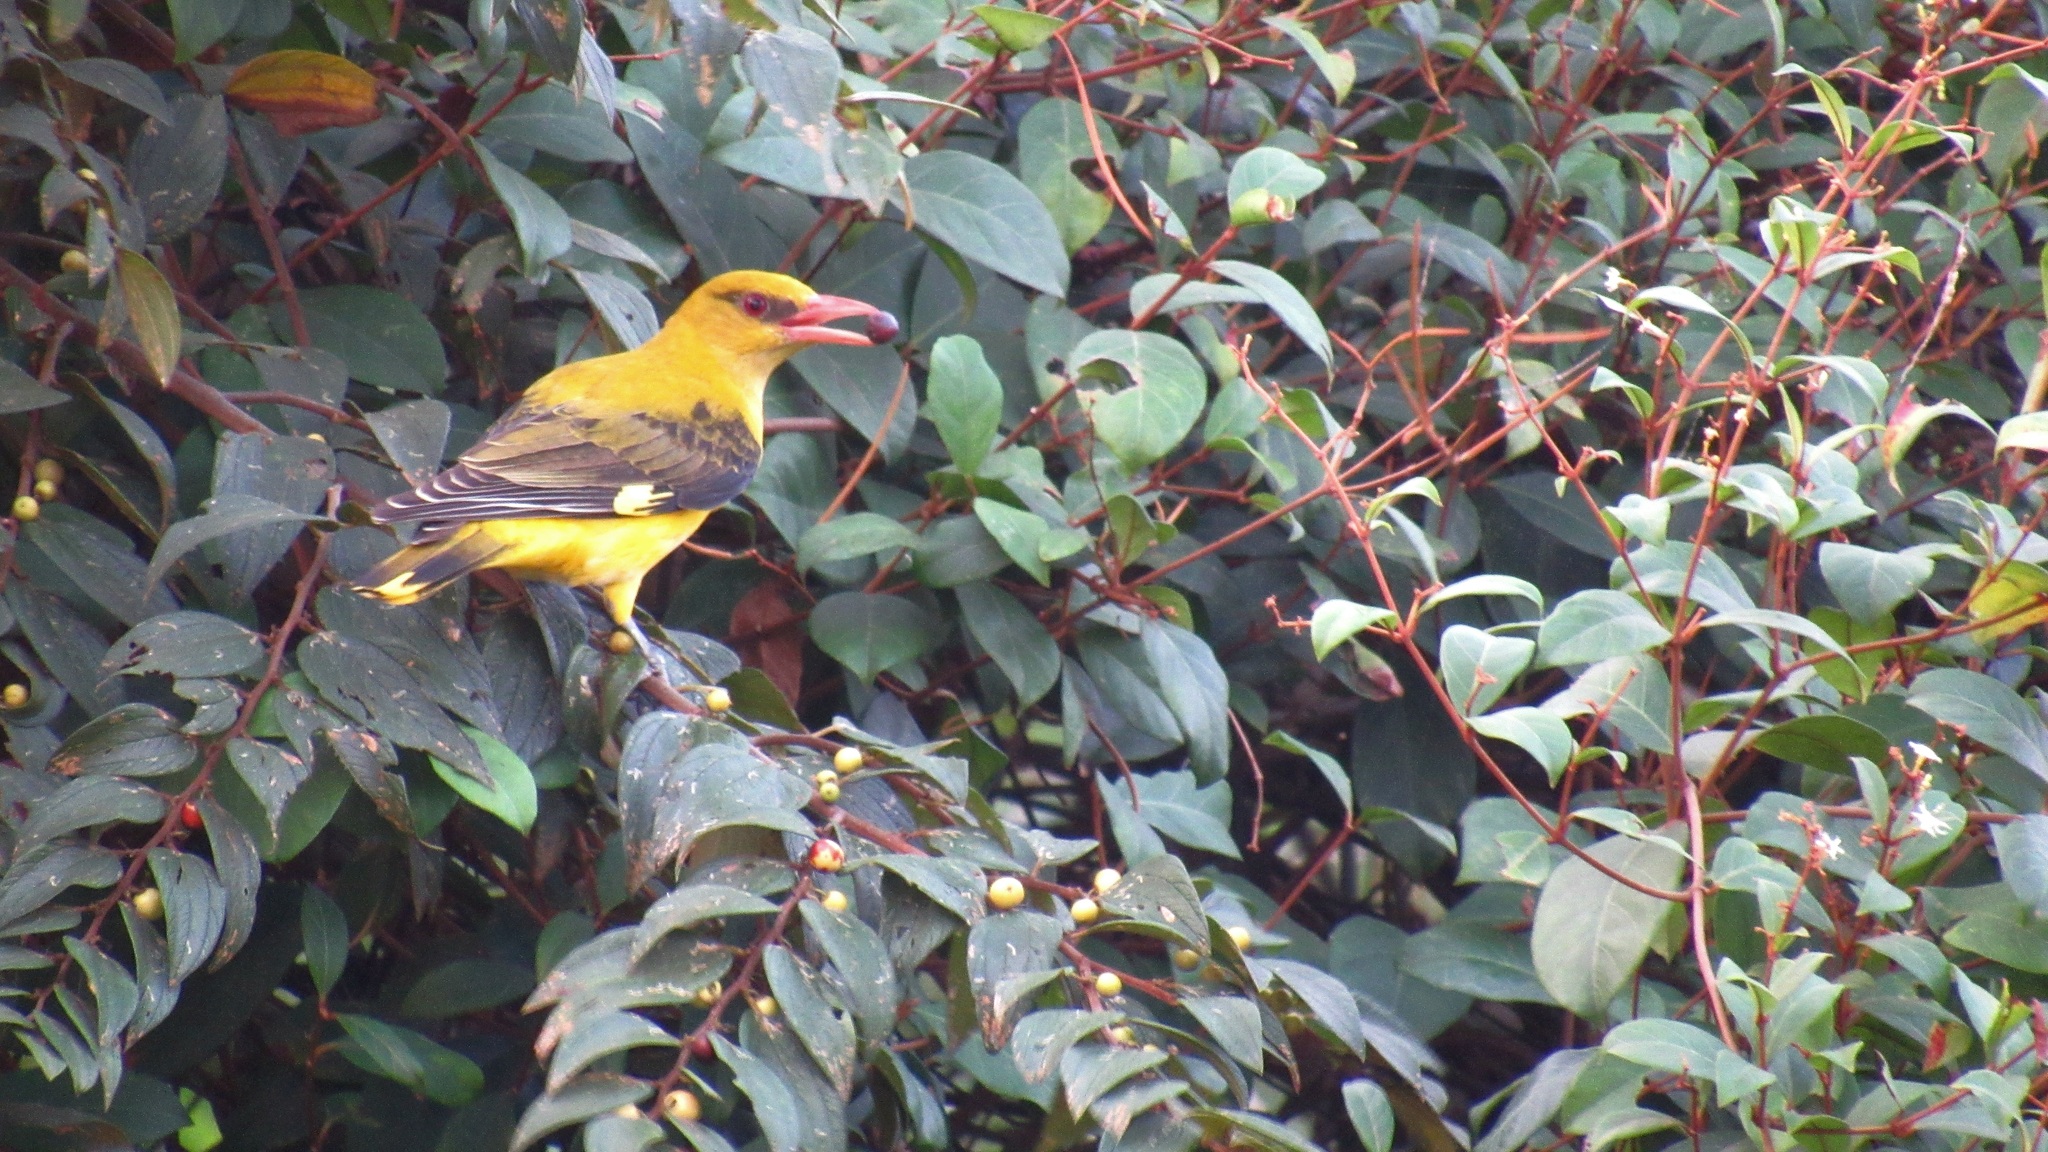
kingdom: Animalia
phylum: Chordata
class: Aves
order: Passeriformes
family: Oriolidae
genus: Oriolus
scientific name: Oriolus kundoo
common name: Indian golden oriole
